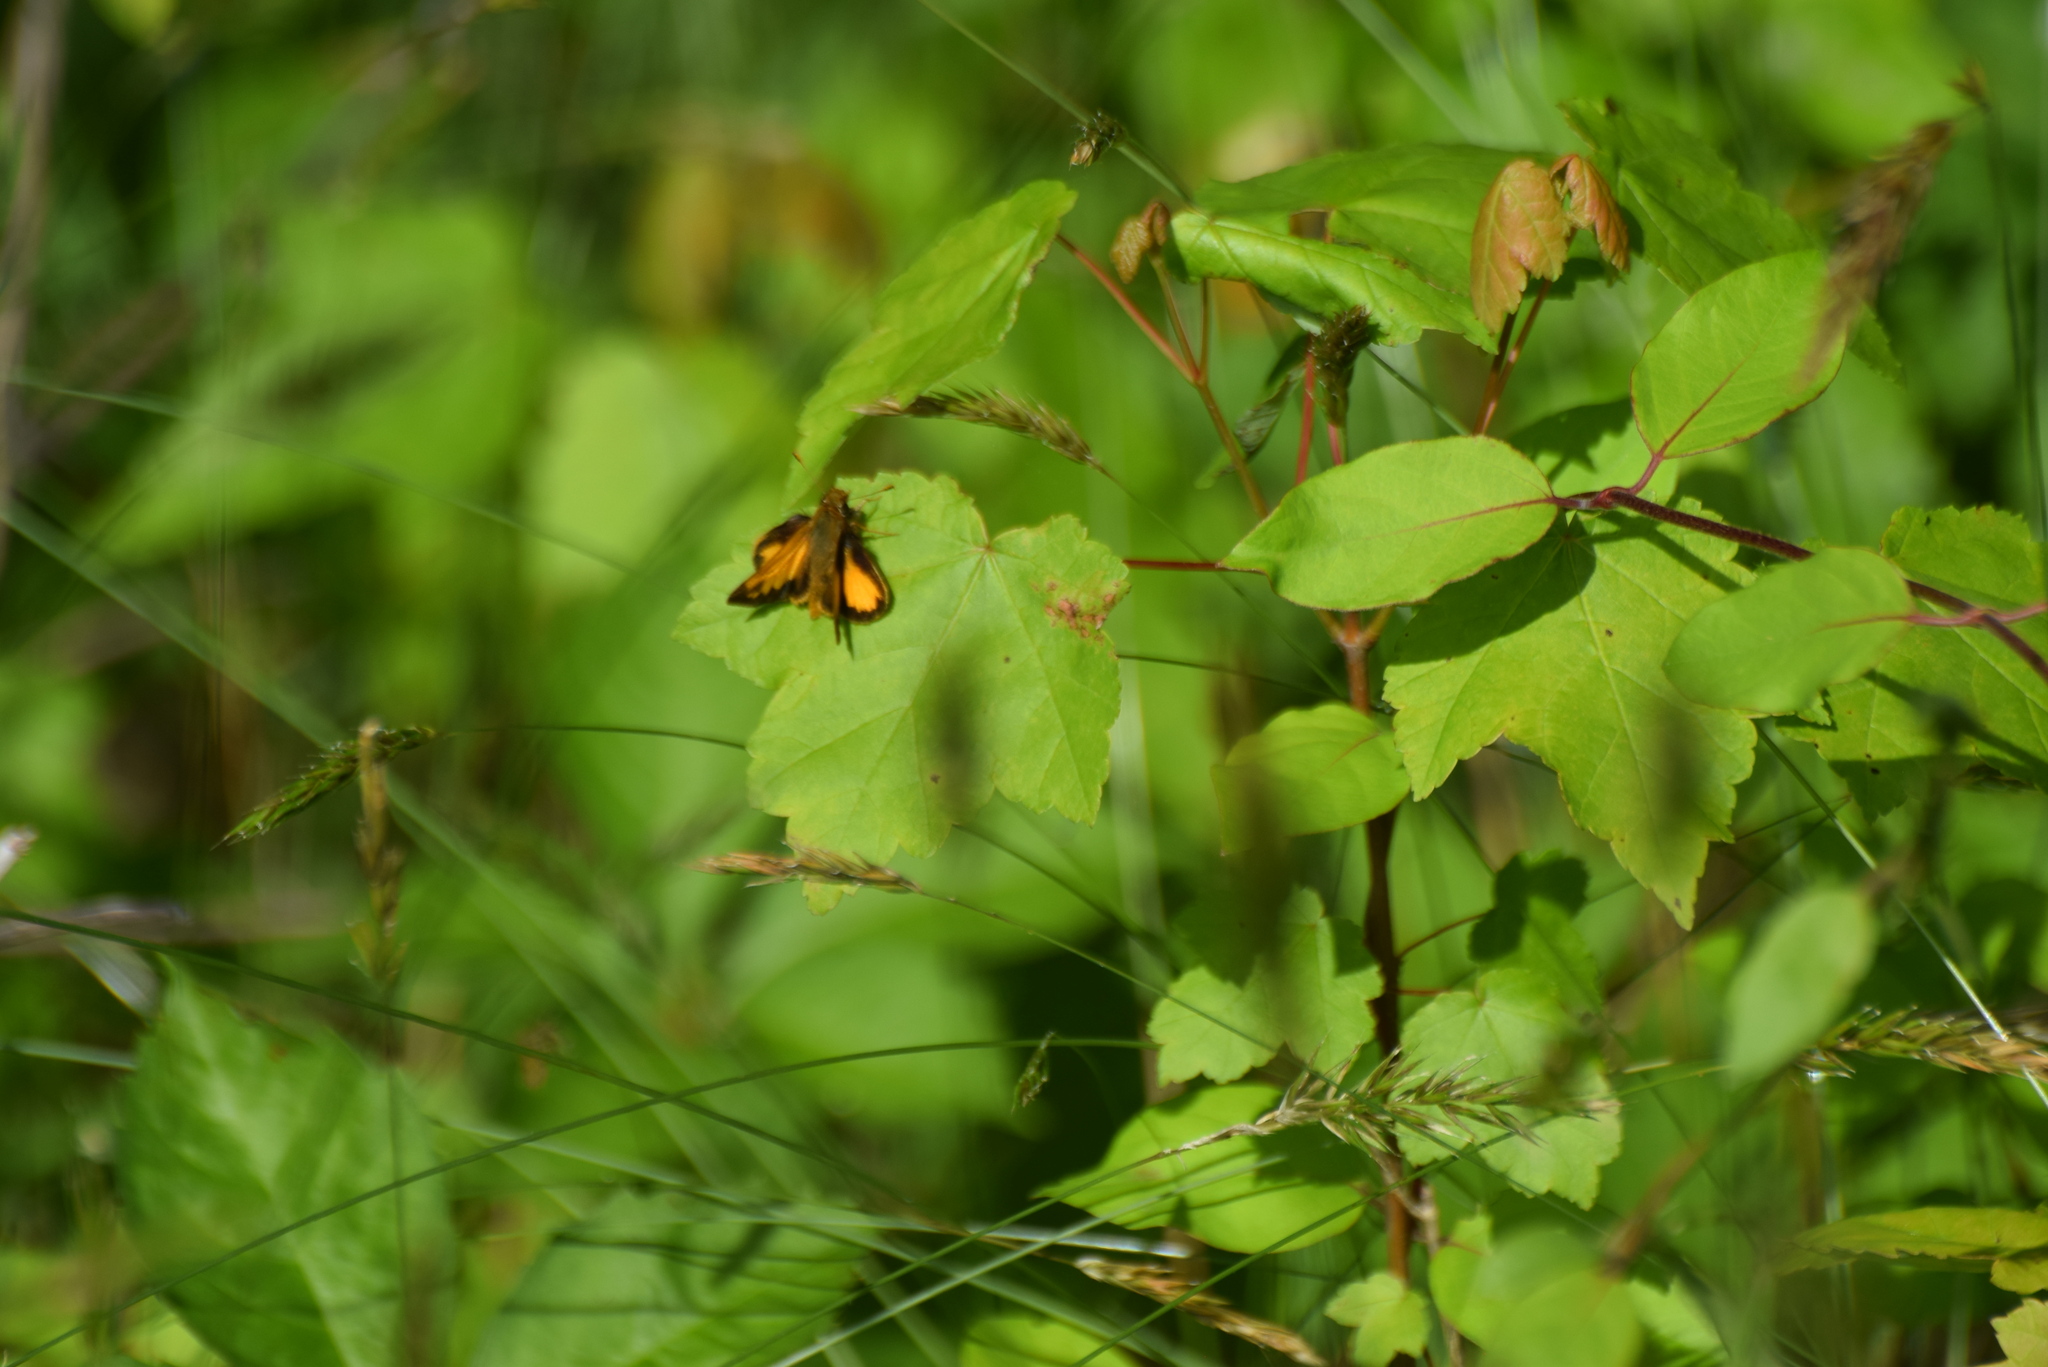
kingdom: Animalia
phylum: Arthropoda
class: Insecta
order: Lepidoptera
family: Hesperiidae
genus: Lon
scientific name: Lon zabulon
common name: Zabulon skipper
